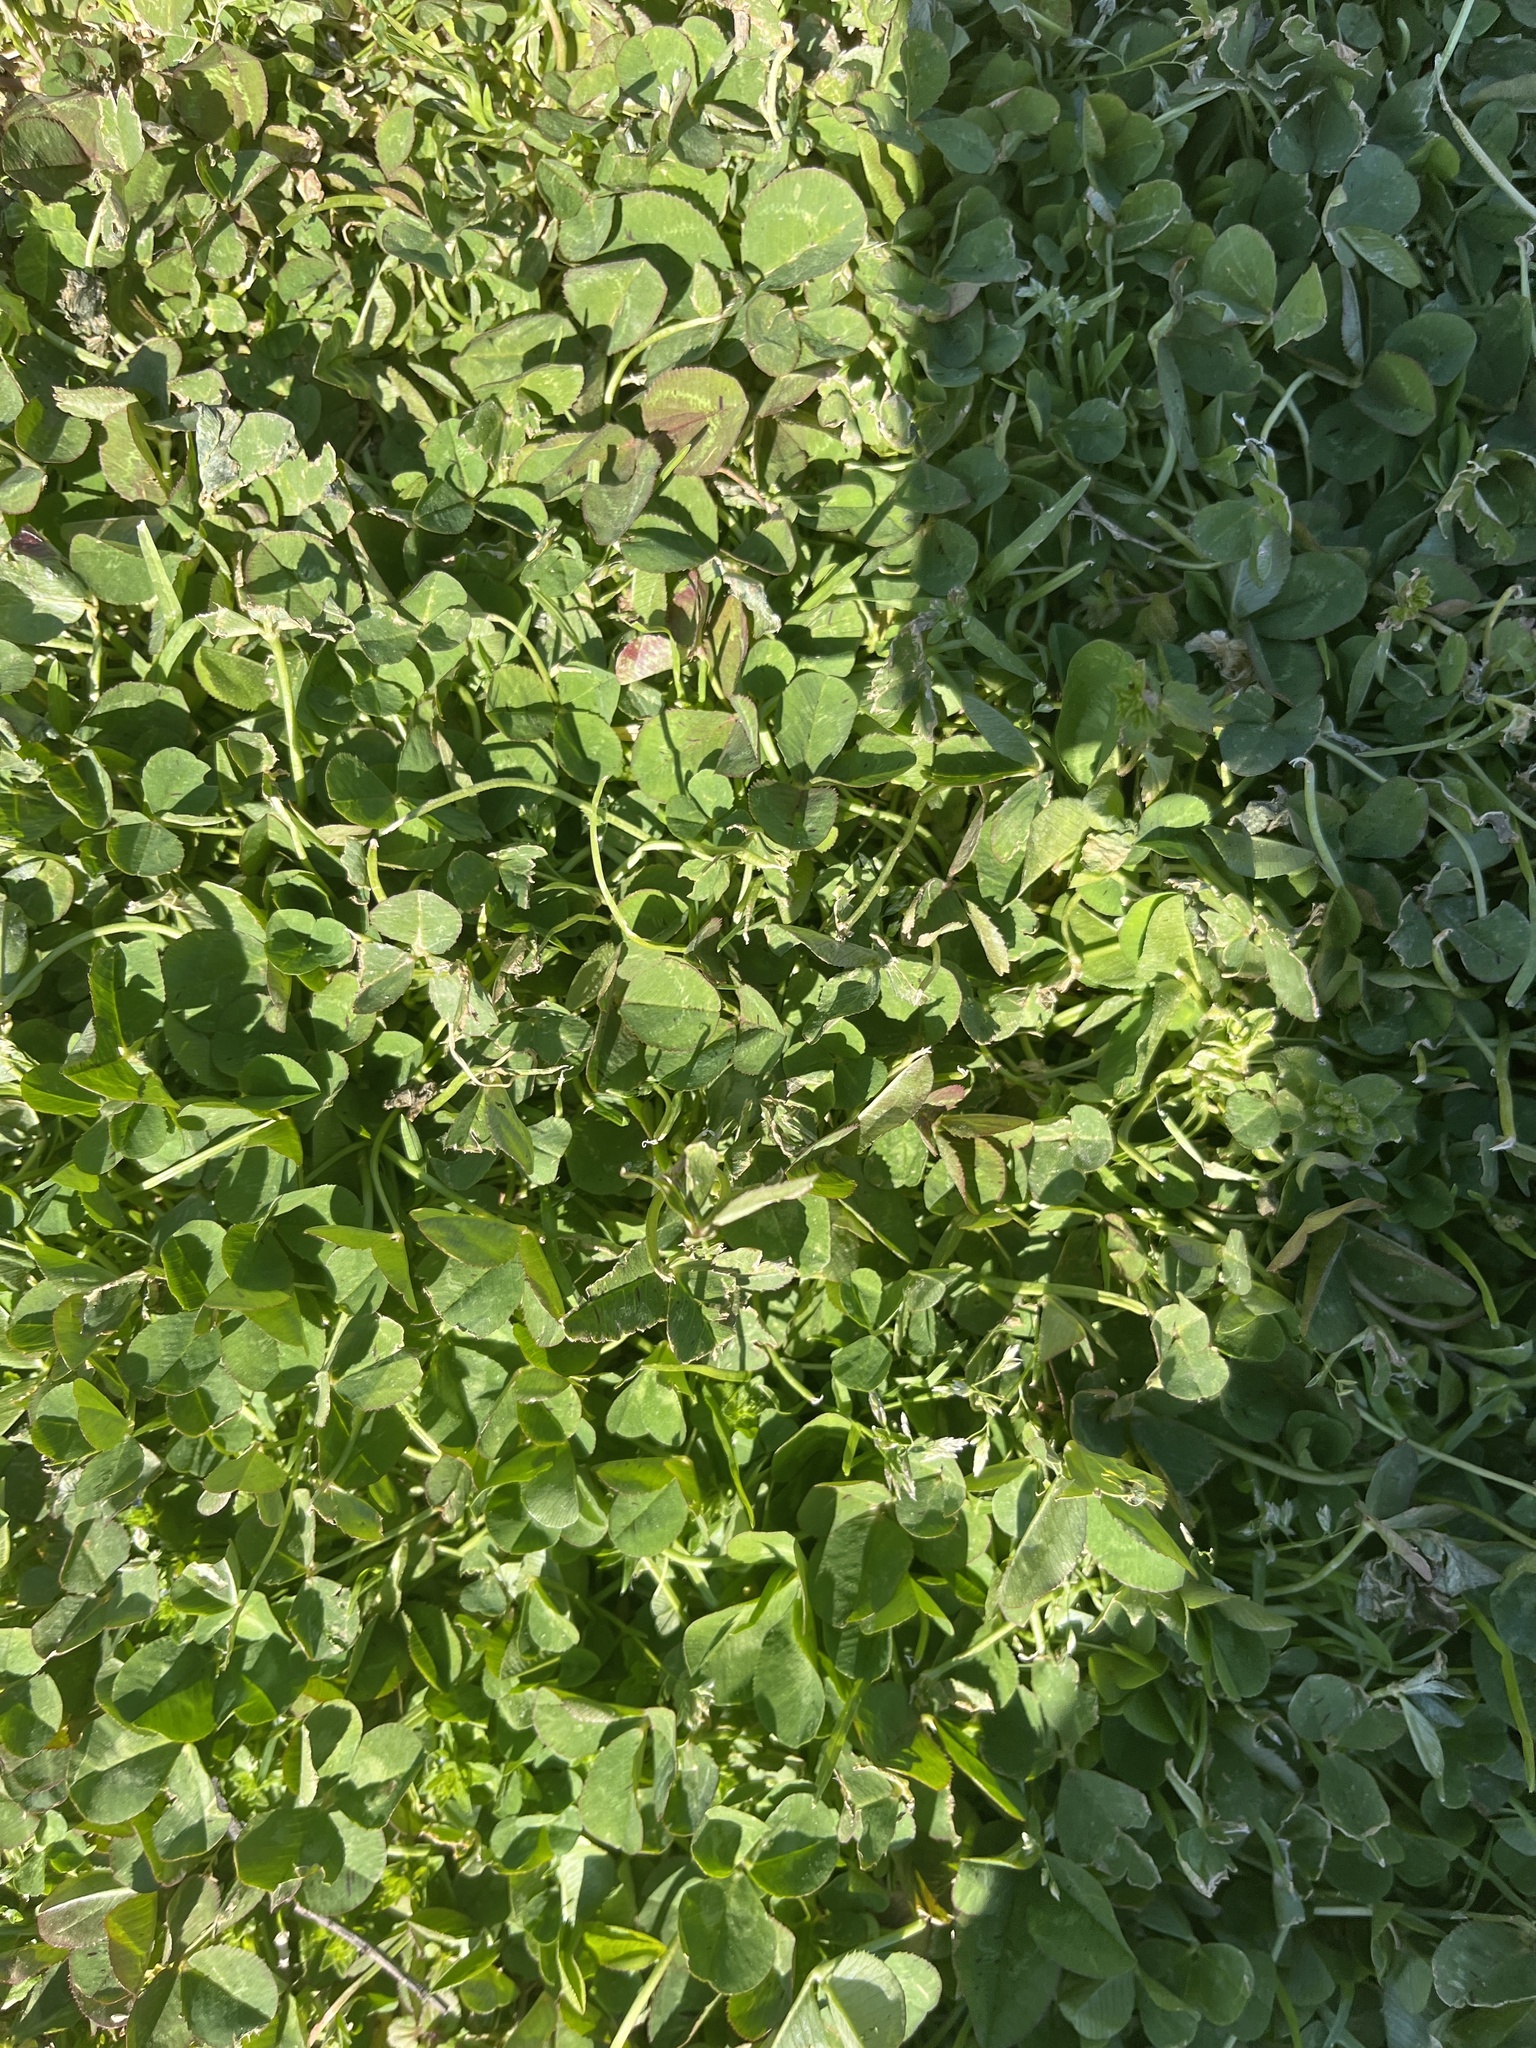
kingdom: Plantae
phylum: Tracheophyta
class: Magnoliopsida
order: Fabales
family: Fabaceae
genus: Trifolium
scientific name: Trifolium repens
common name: White clover
